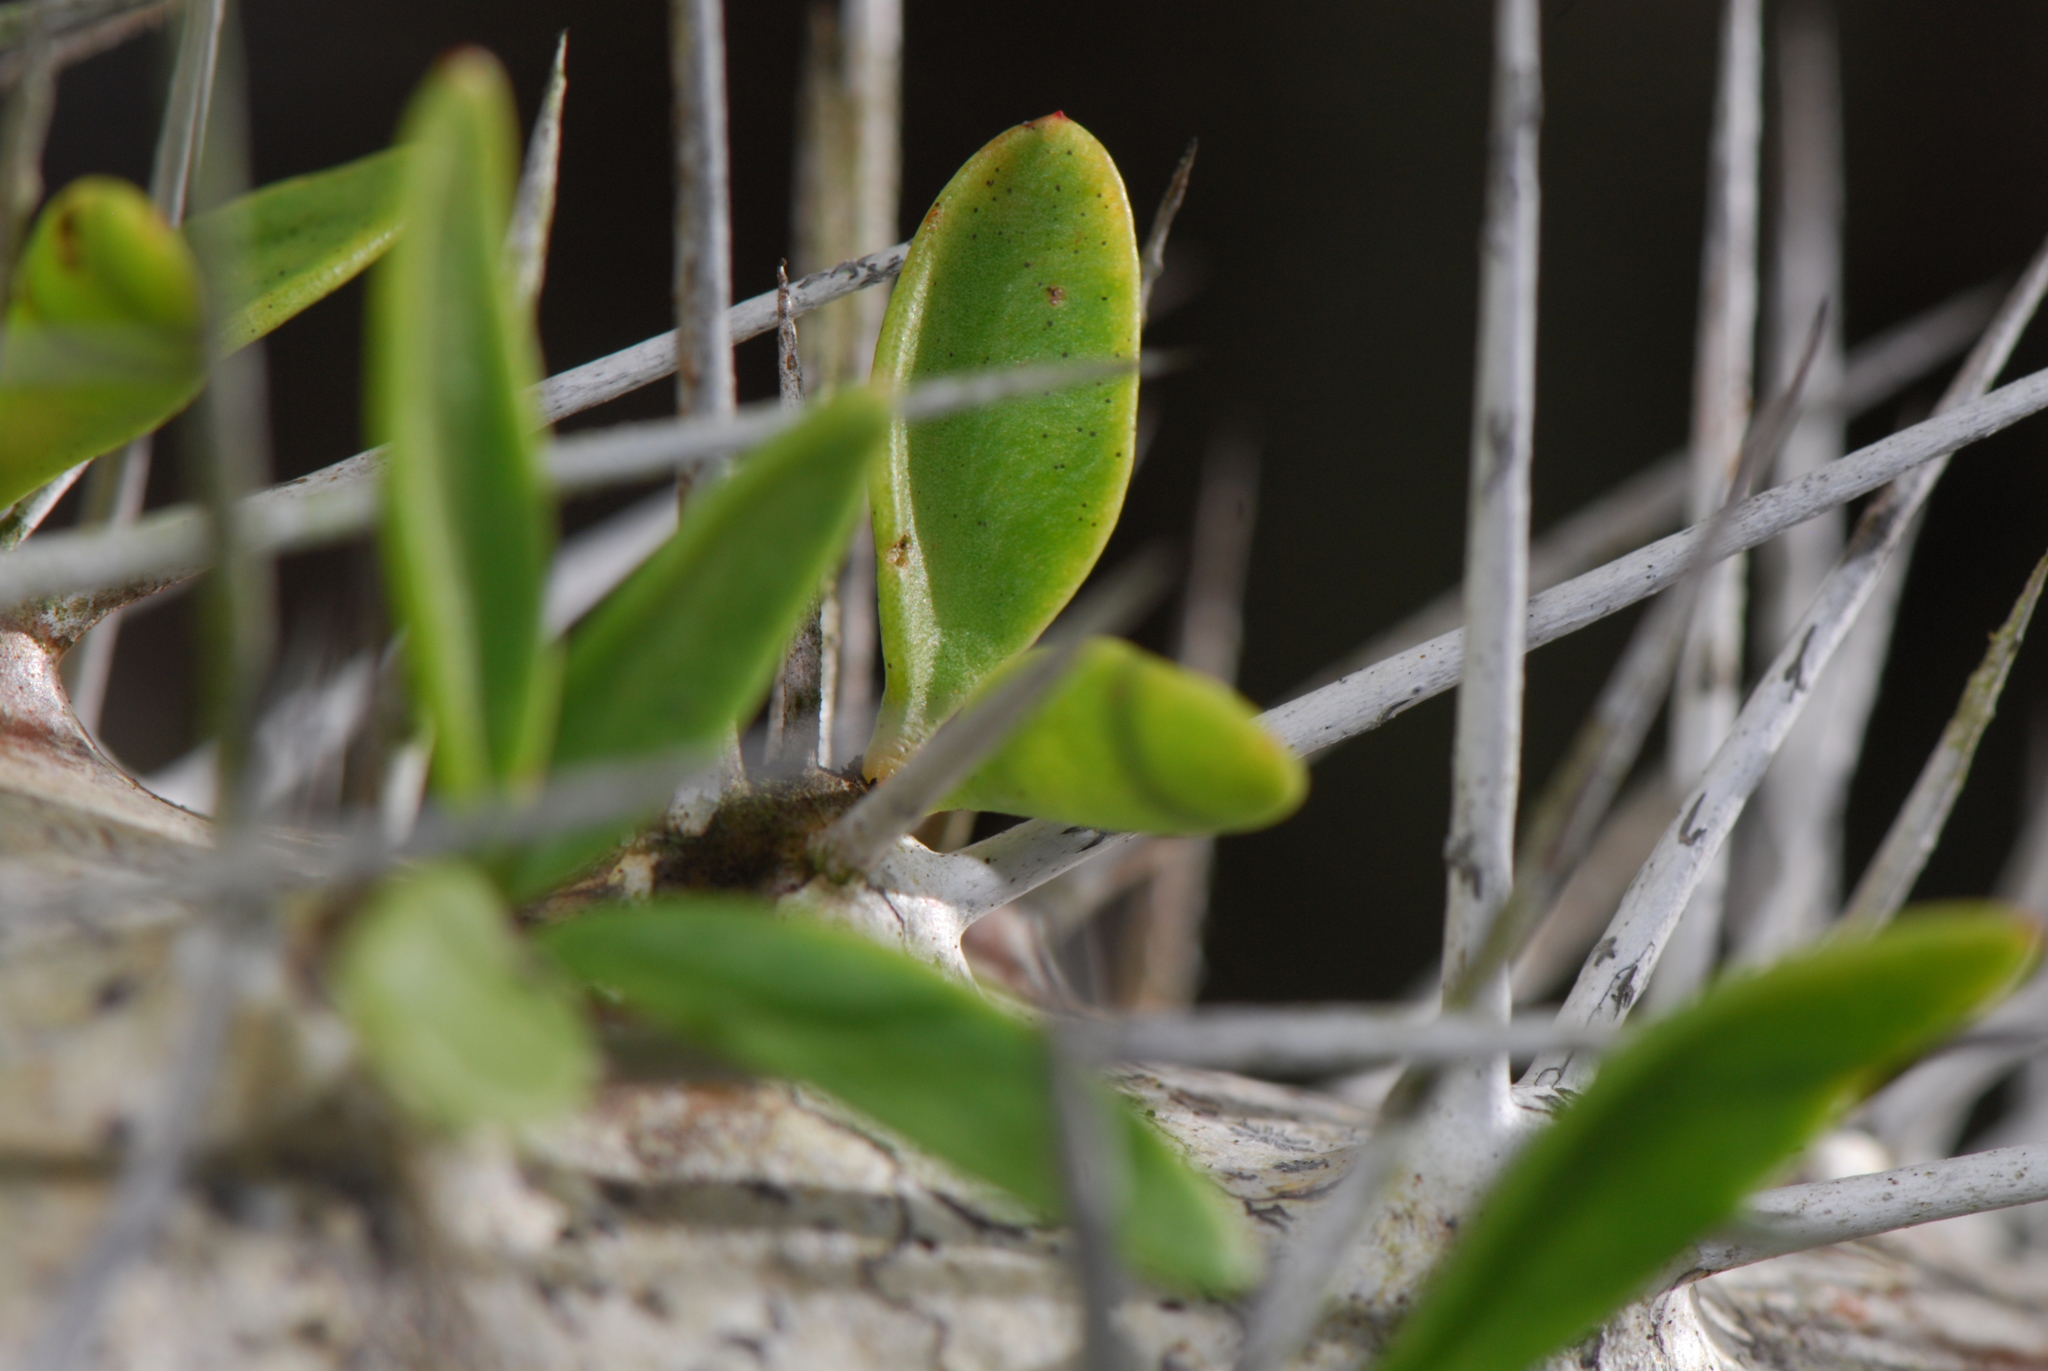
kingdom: Plantae
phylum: Tracheophyta
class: Magnoliopsida
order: Caryophyllales
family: Didiereaceae
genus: Didierea
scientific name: Didierea trollii
